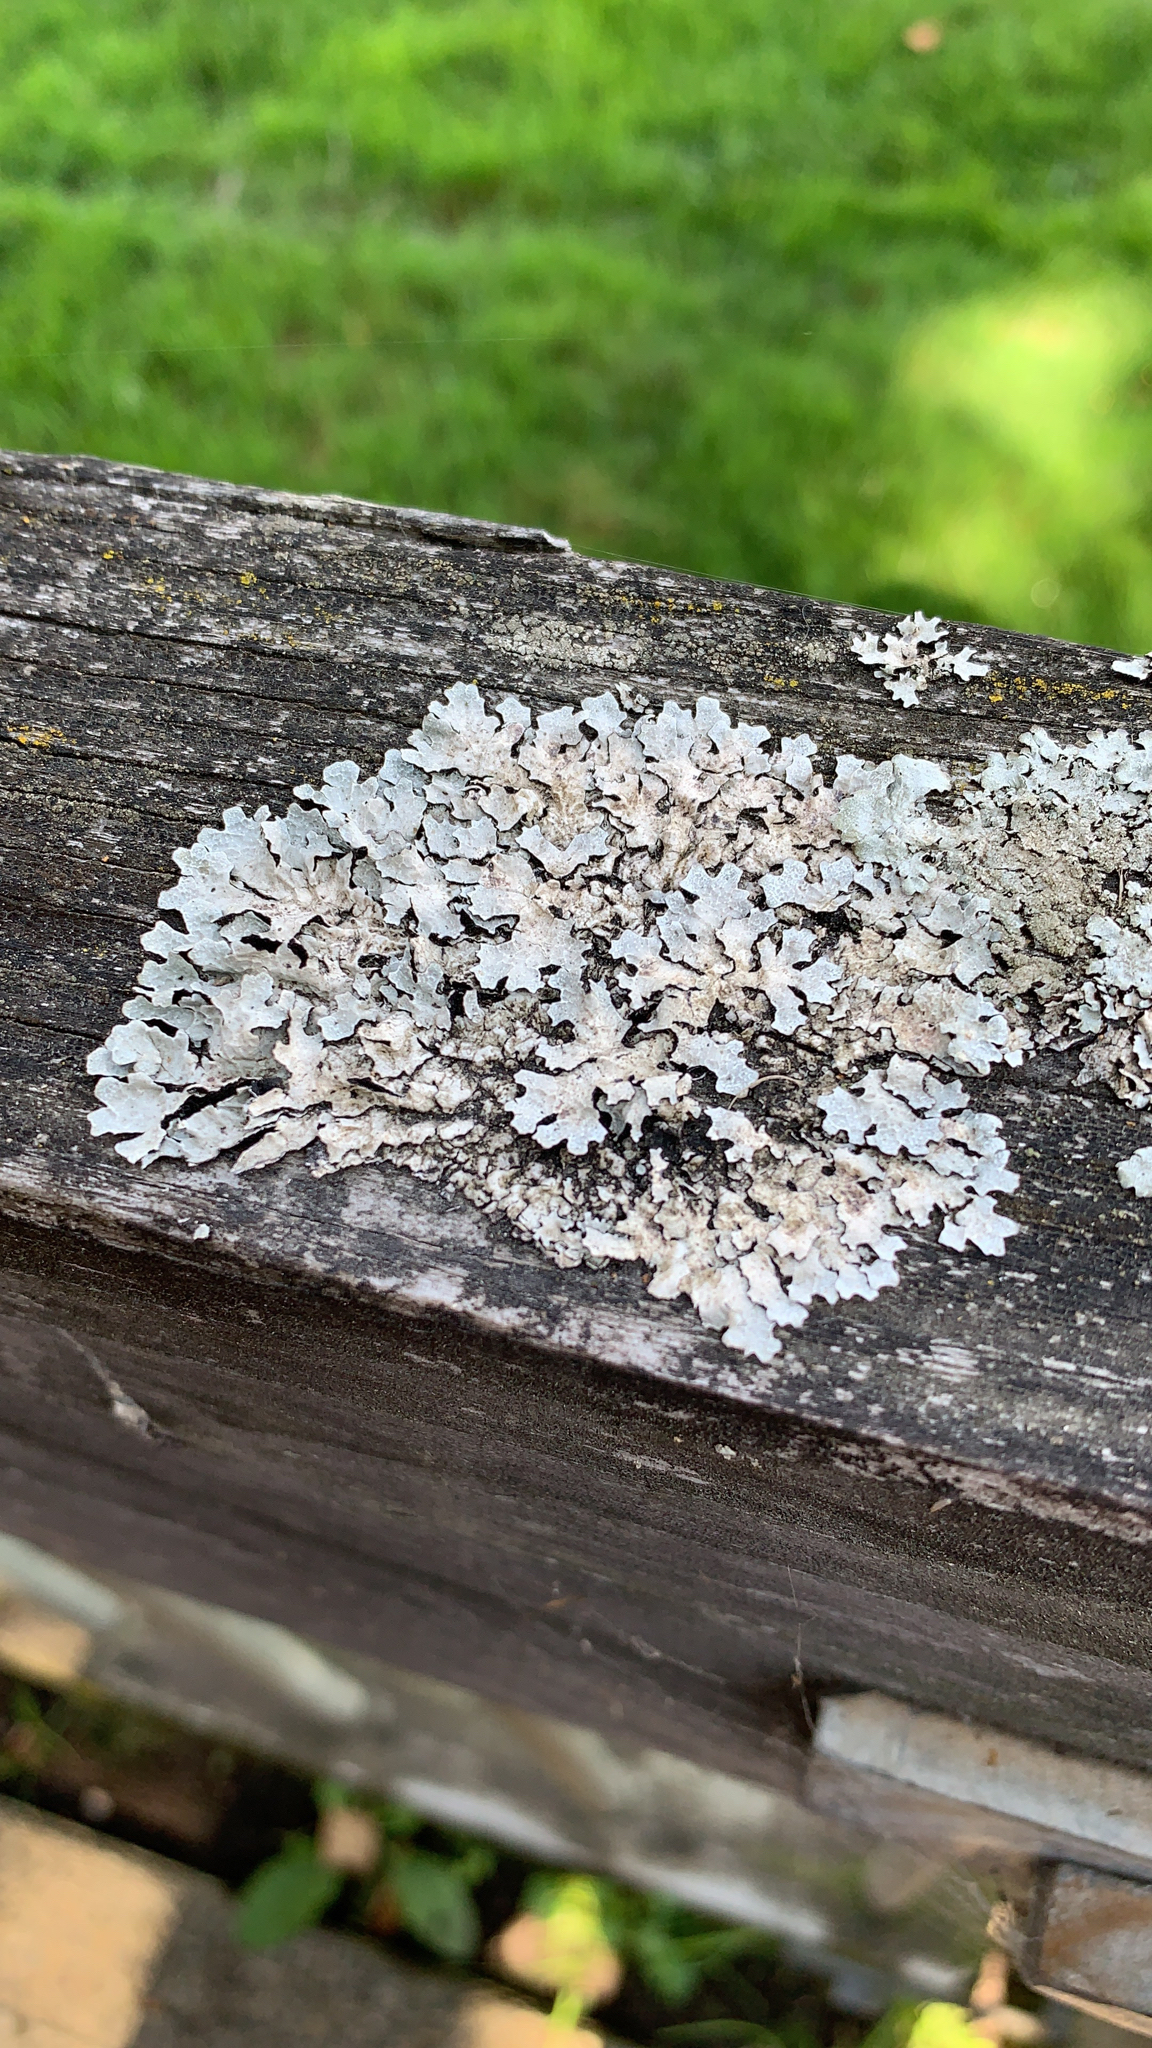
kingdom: Fungi
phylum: Ascomycota
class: Lecanoromycetes
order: Lecanorales
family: Parmeliaceae
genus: Parmelia
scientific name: Parmelia sulcata
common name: Netted shield lichen
